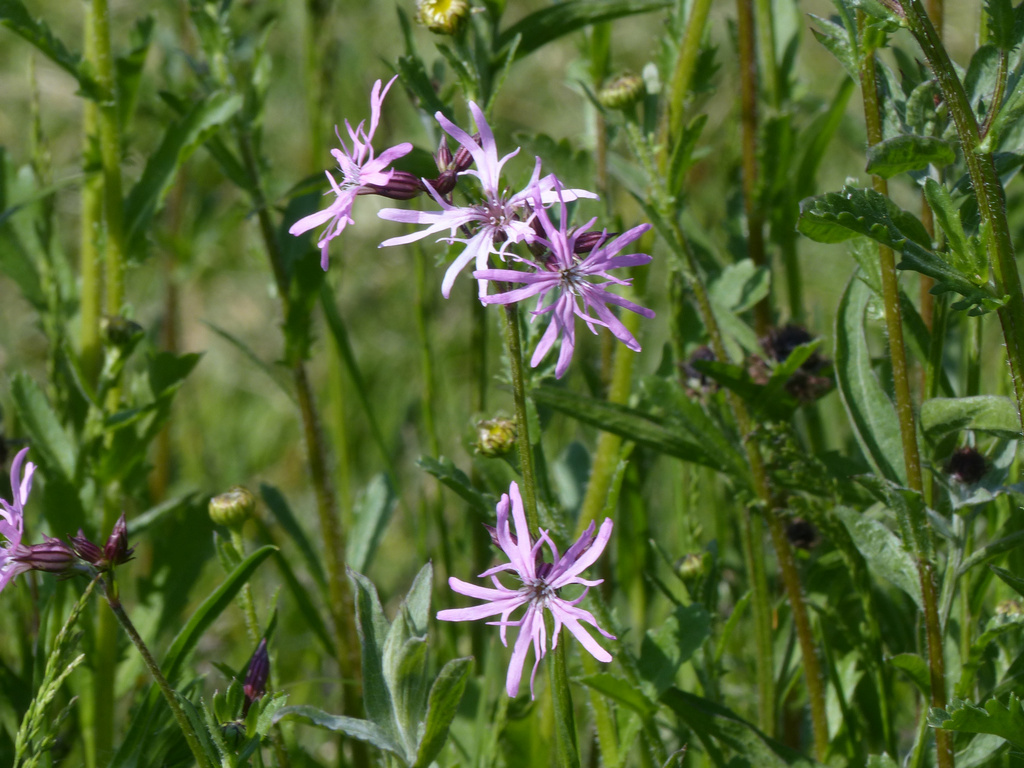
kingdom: Plantae
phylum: Tracheophyta
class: Magnoliopsida
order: Caryophyllales
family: Caryophyllaceae
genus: Silene
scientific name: Silene flos-cuculi
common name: Ragged-robin
